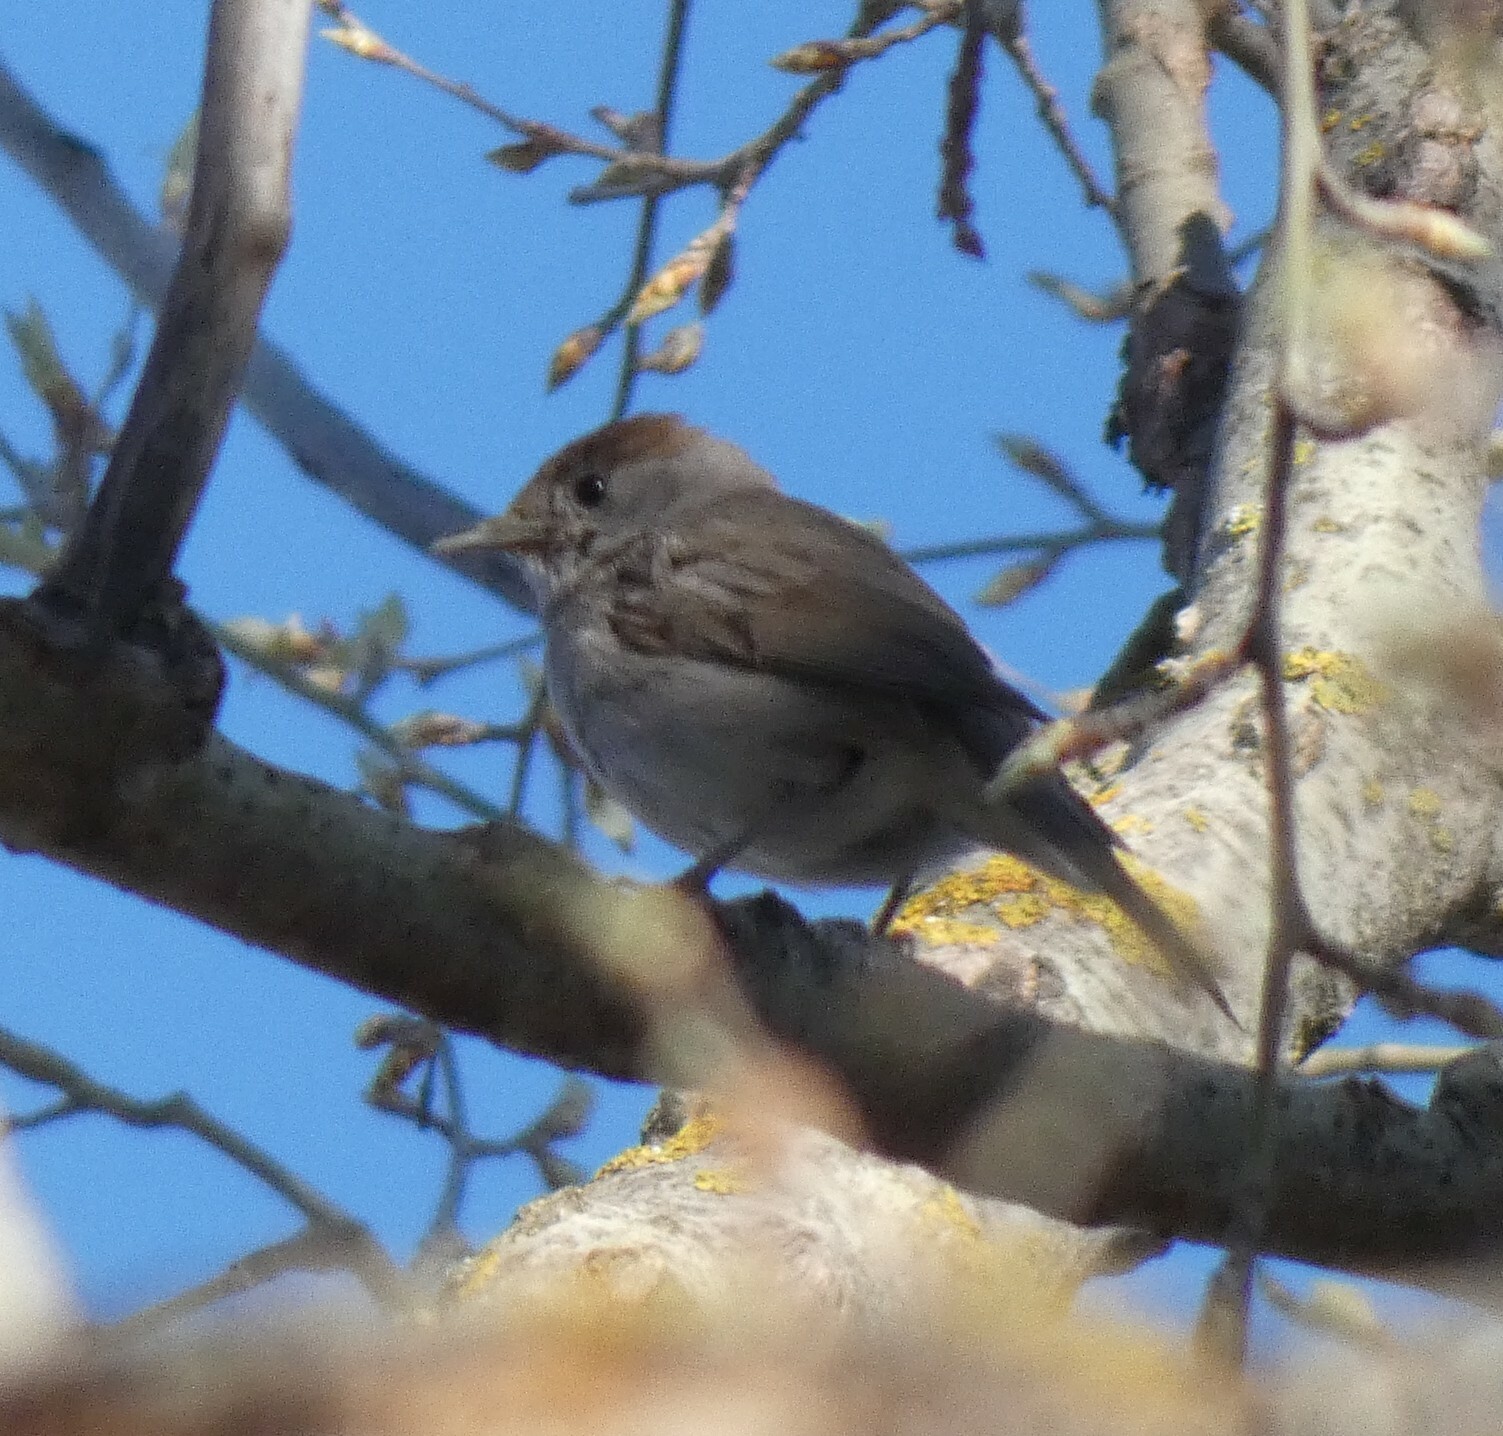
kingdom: Animalia
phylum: Chordata
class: Aves
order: Passeriformes
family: Sylviidae
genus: Sylvia
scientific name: Sylvia atricapilla
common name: Eurasian blackcap
